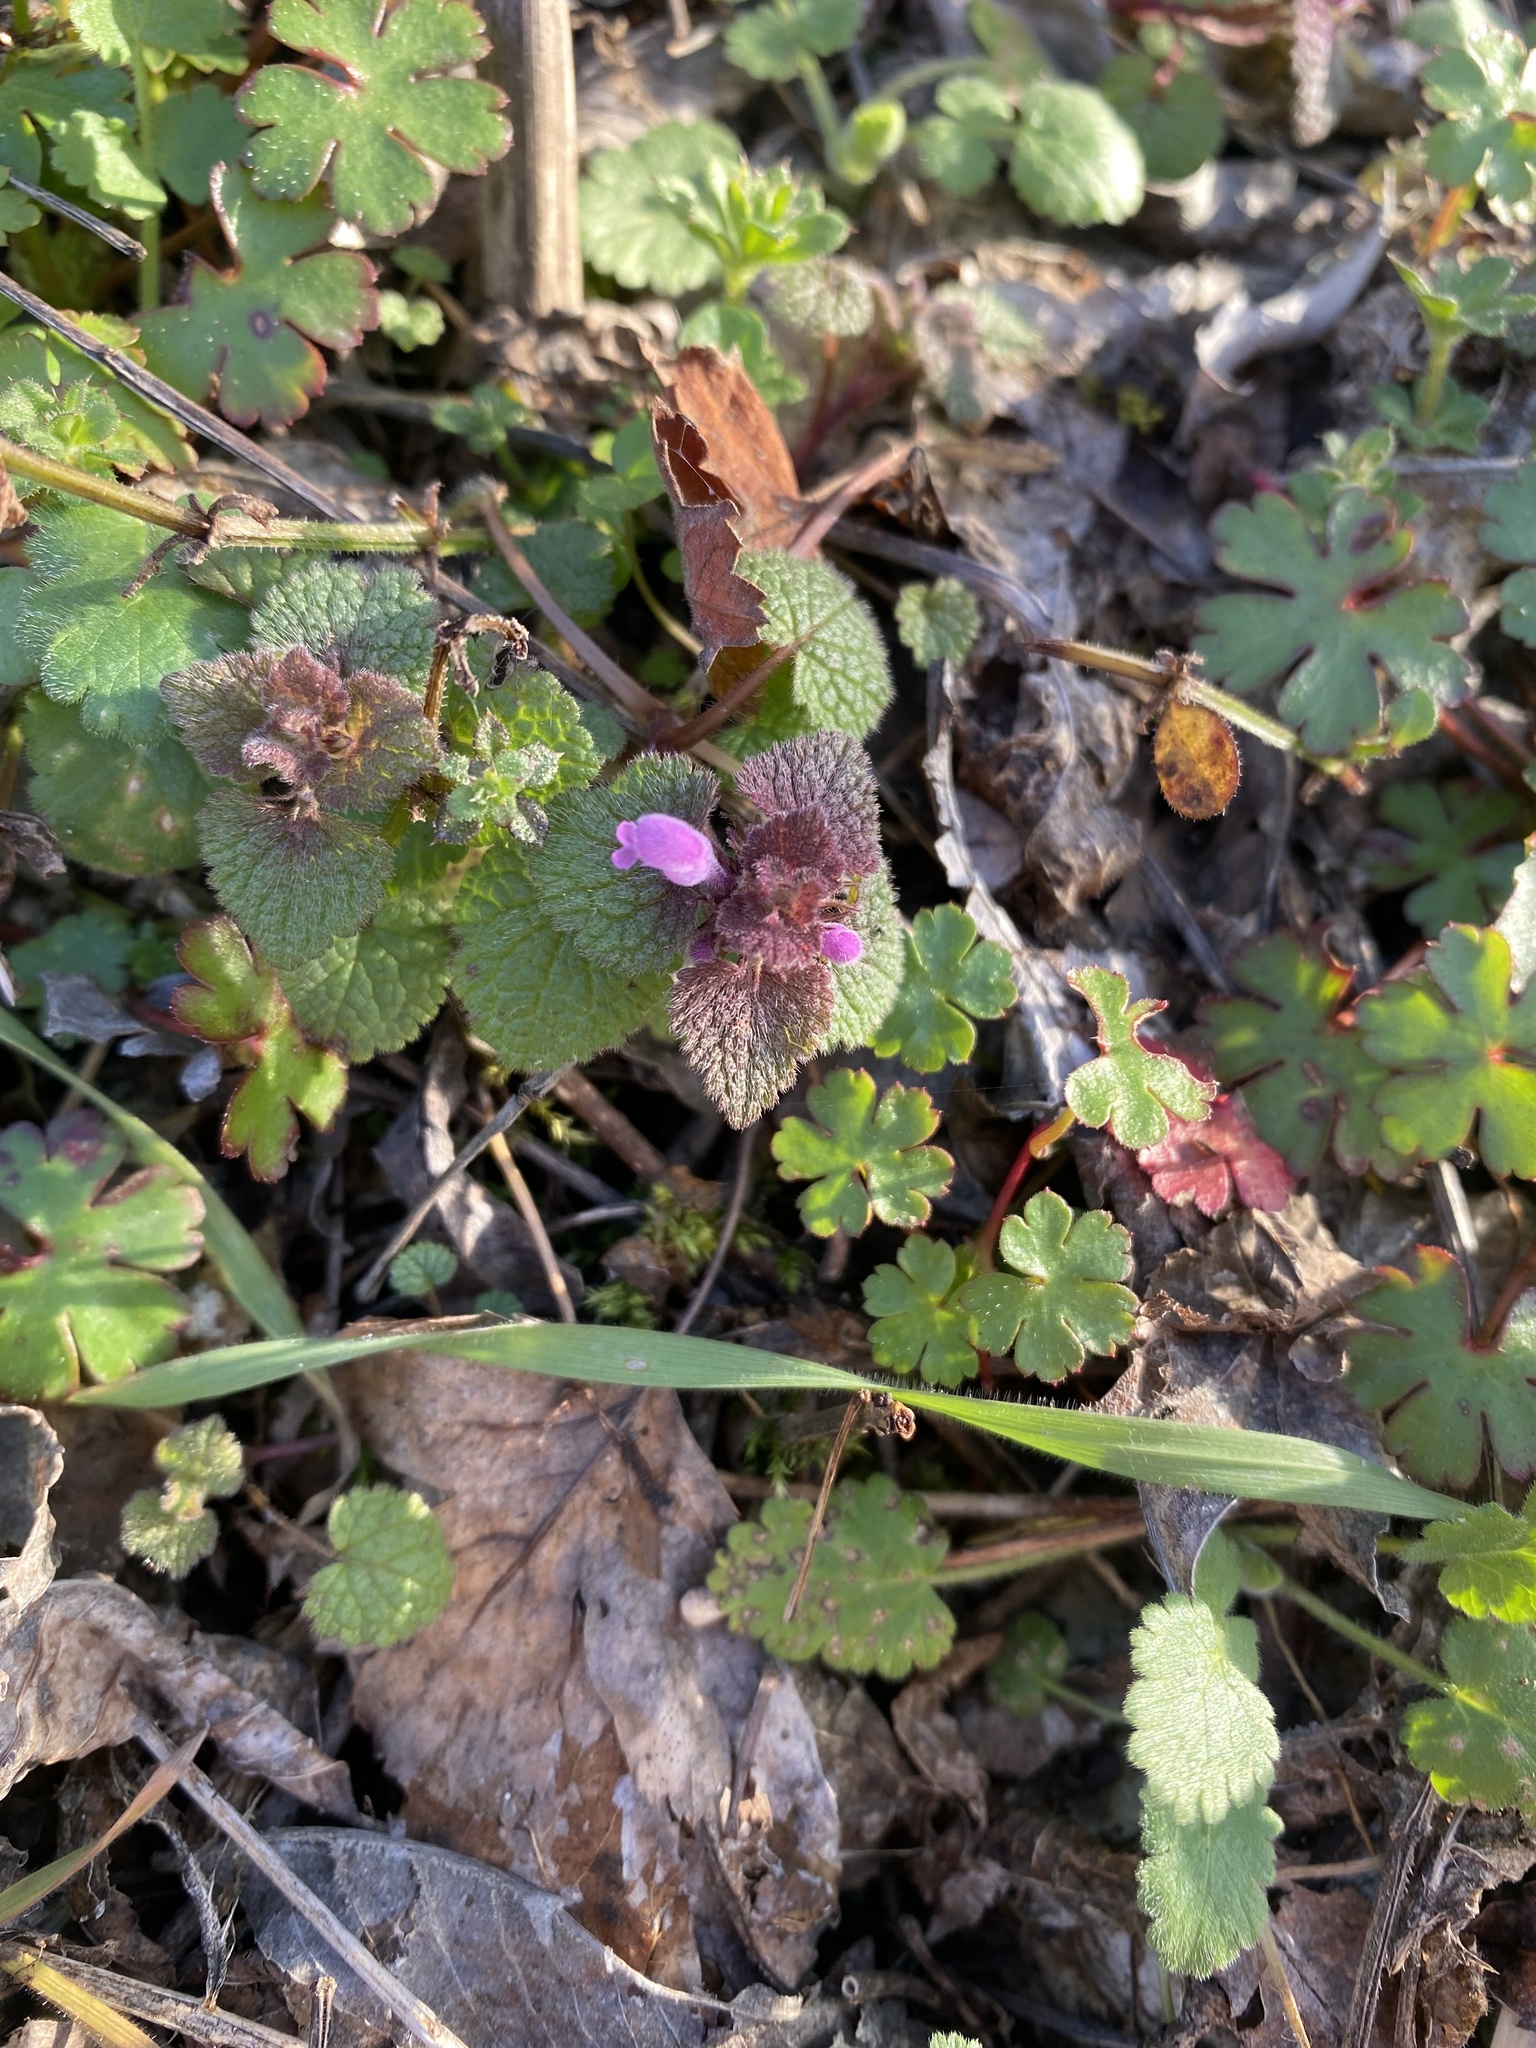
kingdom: Plantae
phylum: Tracheophyta
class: Magnoliopsida
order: Lamiales
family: Lamiaceae
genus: Lamium
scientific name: Lamium purpureum
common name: Red dead-nettle
